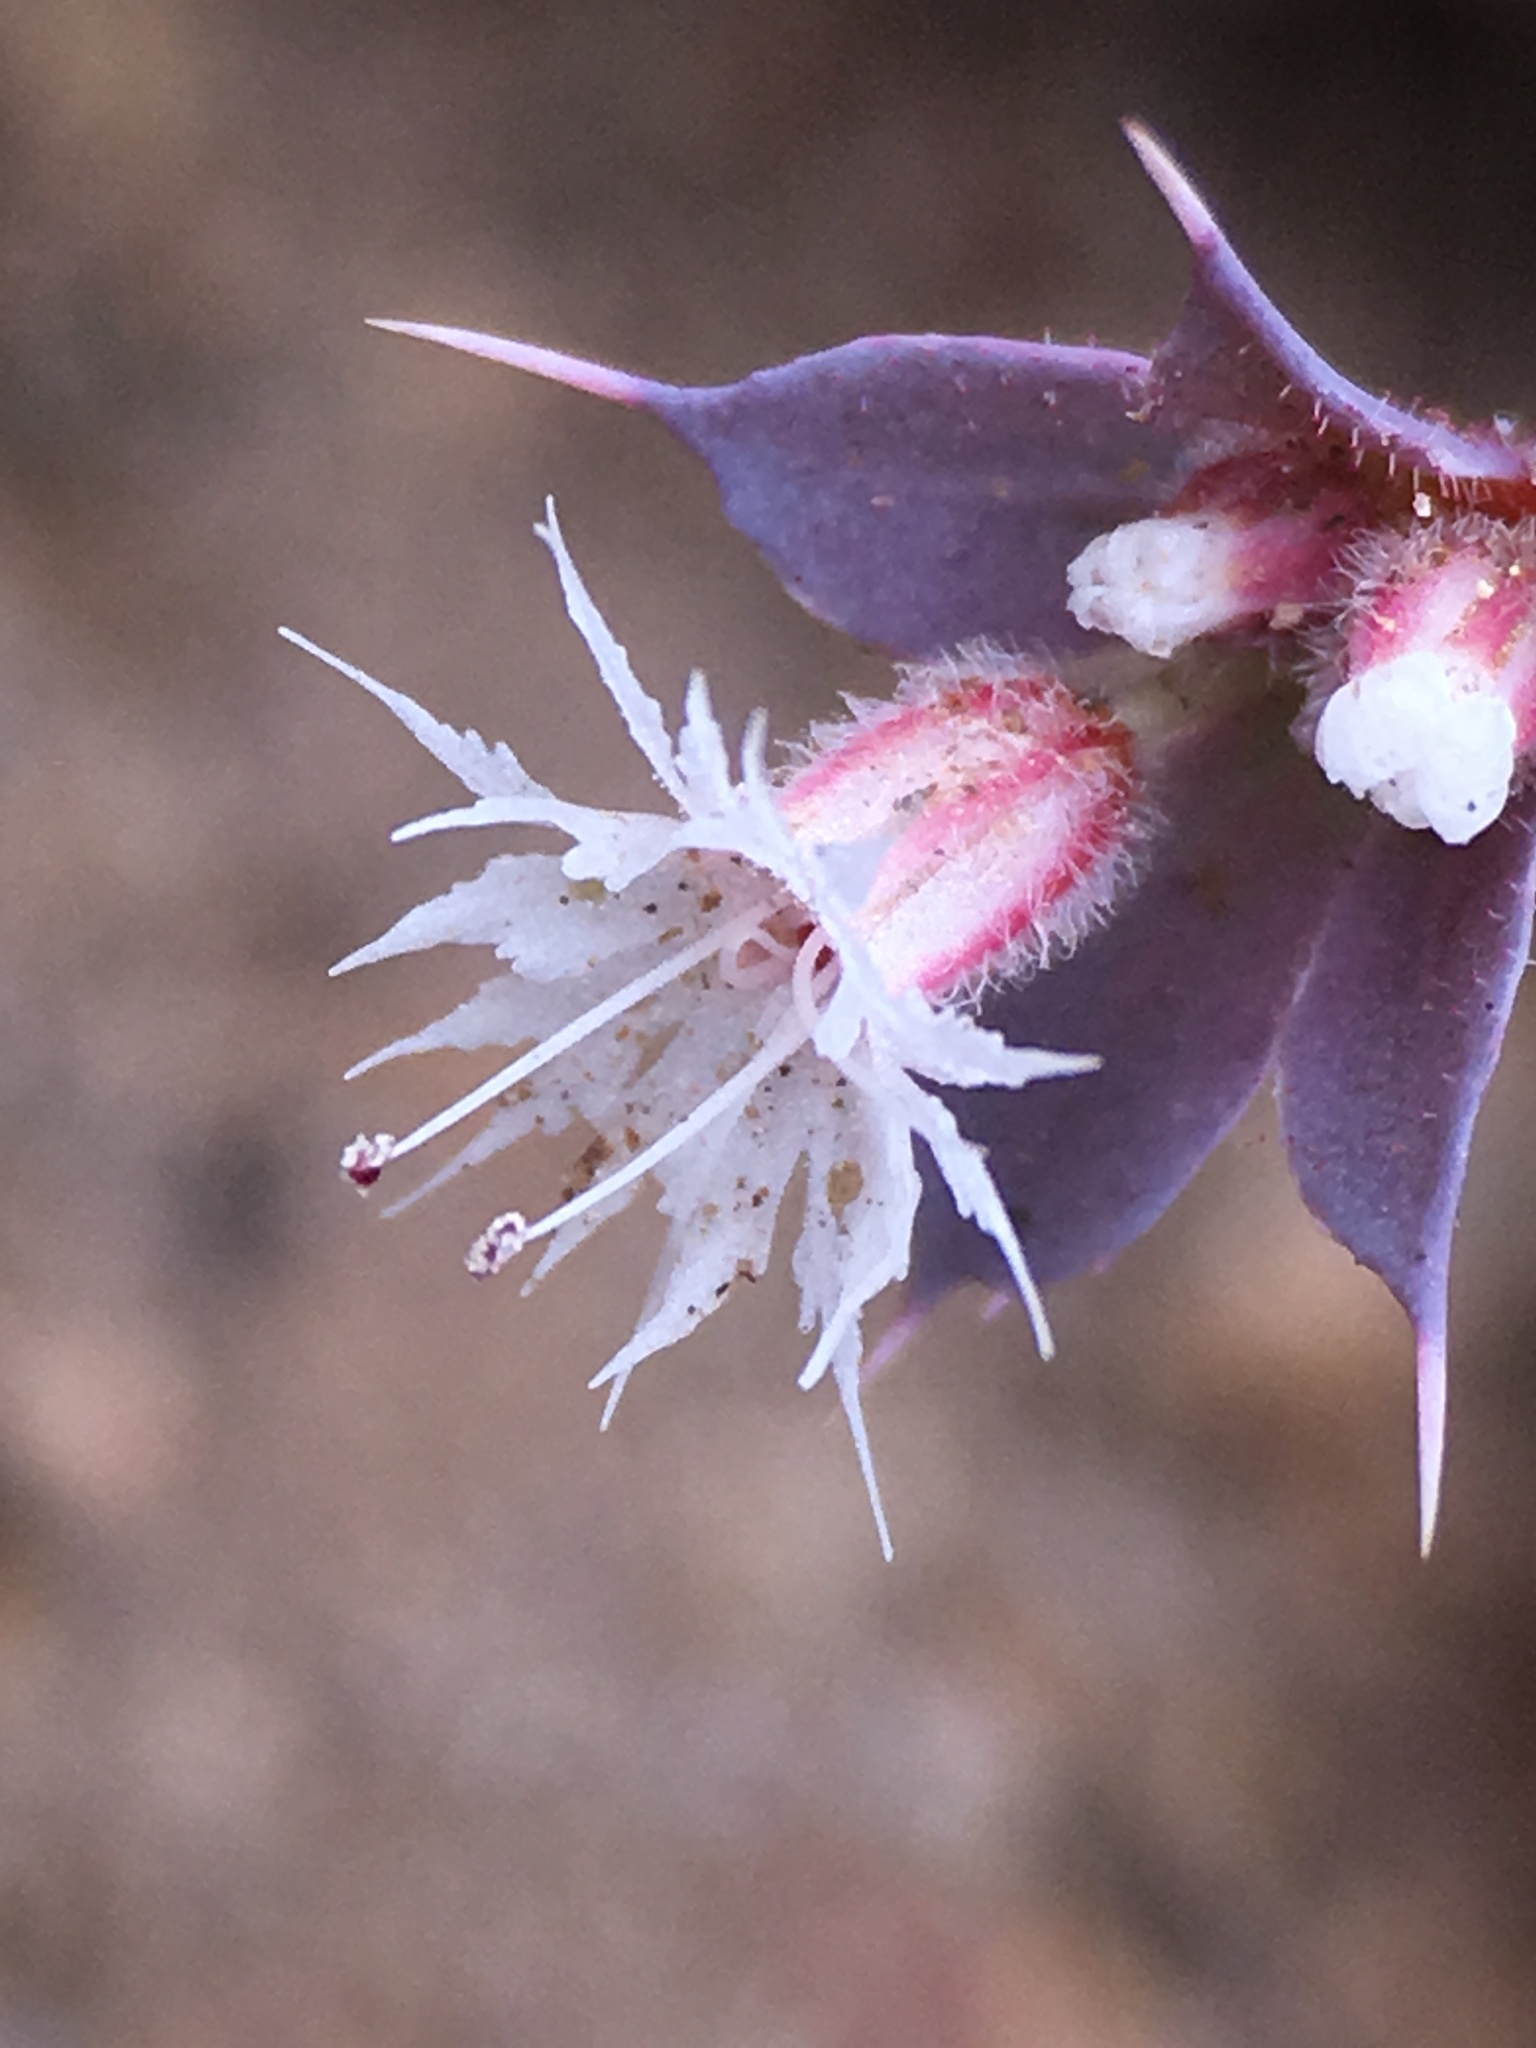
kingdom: Plantae
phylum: Tracheophyta
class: Magnoliopsida
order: Caryophyllales
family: Polygonaceae
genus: Sidotheca
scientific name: Sidotheca trilobata
